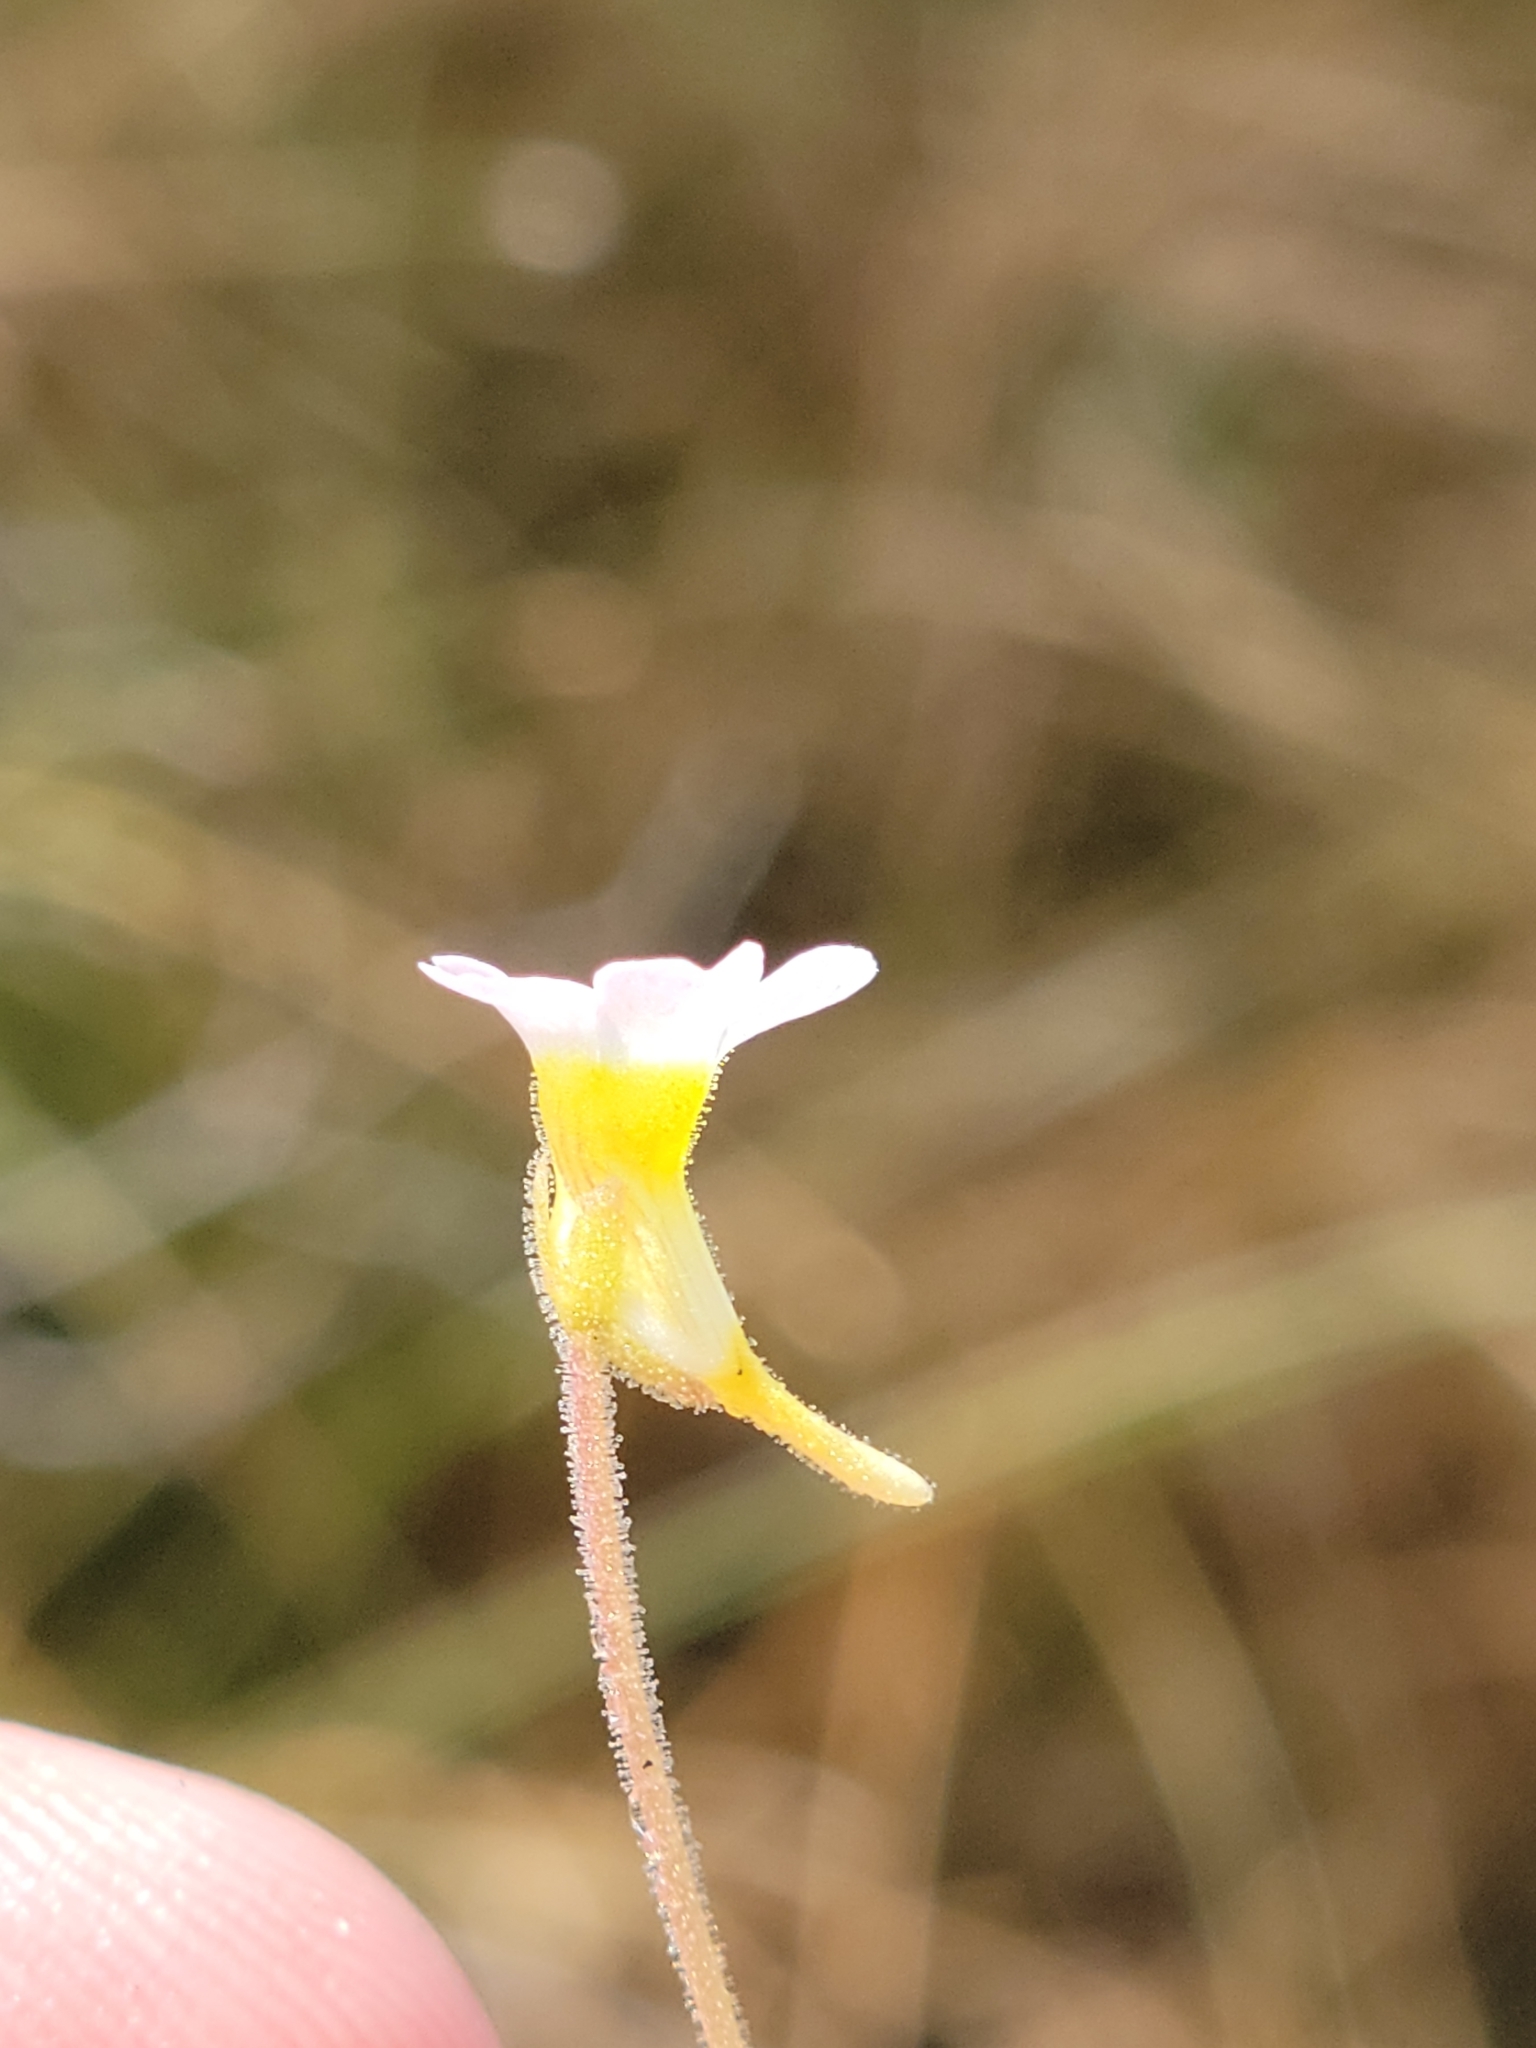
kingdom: Plantae
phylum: Tracheophyta
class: Magnoliopsida
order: Lamiales
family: Lentibulariaceae
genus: Pinguicula
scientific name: Pinguicula pumila
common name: Small butterwort
